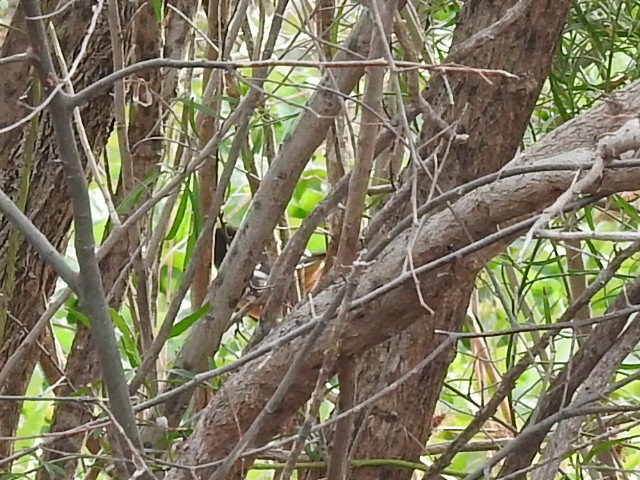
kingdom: Animalia
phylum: Chordata
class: Aves
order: Passeriformes
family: Passerellidae
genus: Pipilo
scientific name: Pipilo maculatus
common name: Spotted towhee
